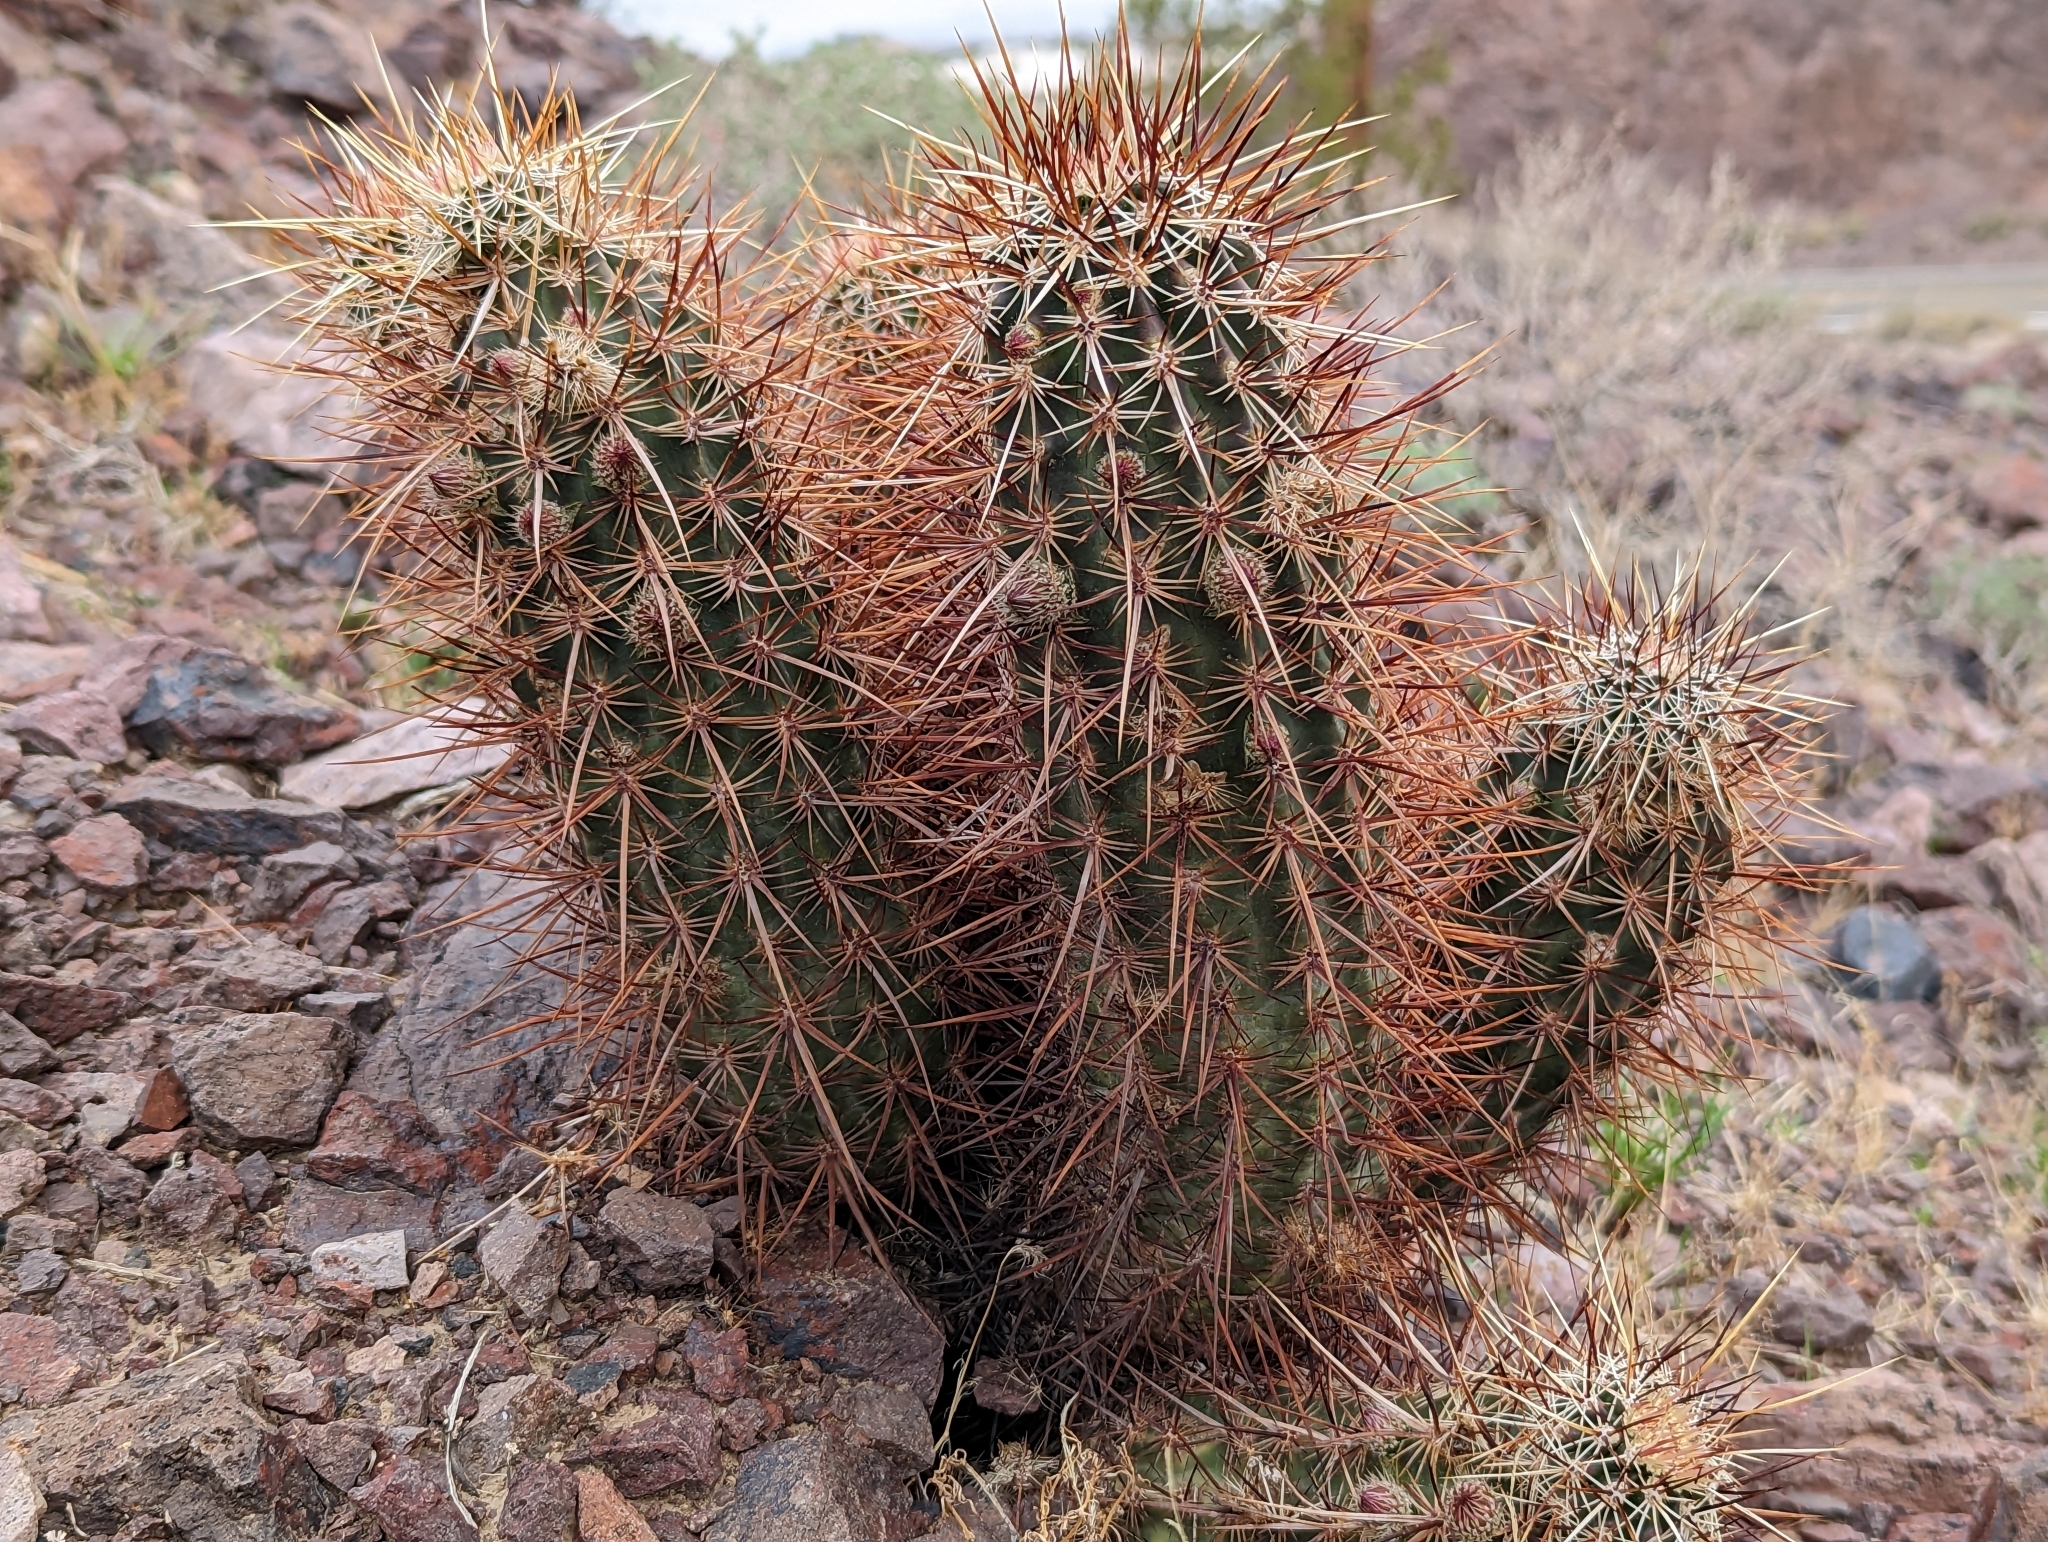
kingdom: Plantae
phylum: Tracheophyta
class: Magnoliopsida
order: Caryophyllales
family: Cactaceae
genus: Echinocereus
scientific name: Echinocereus engelmannii
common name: Engelmann's hedgehog cactus
